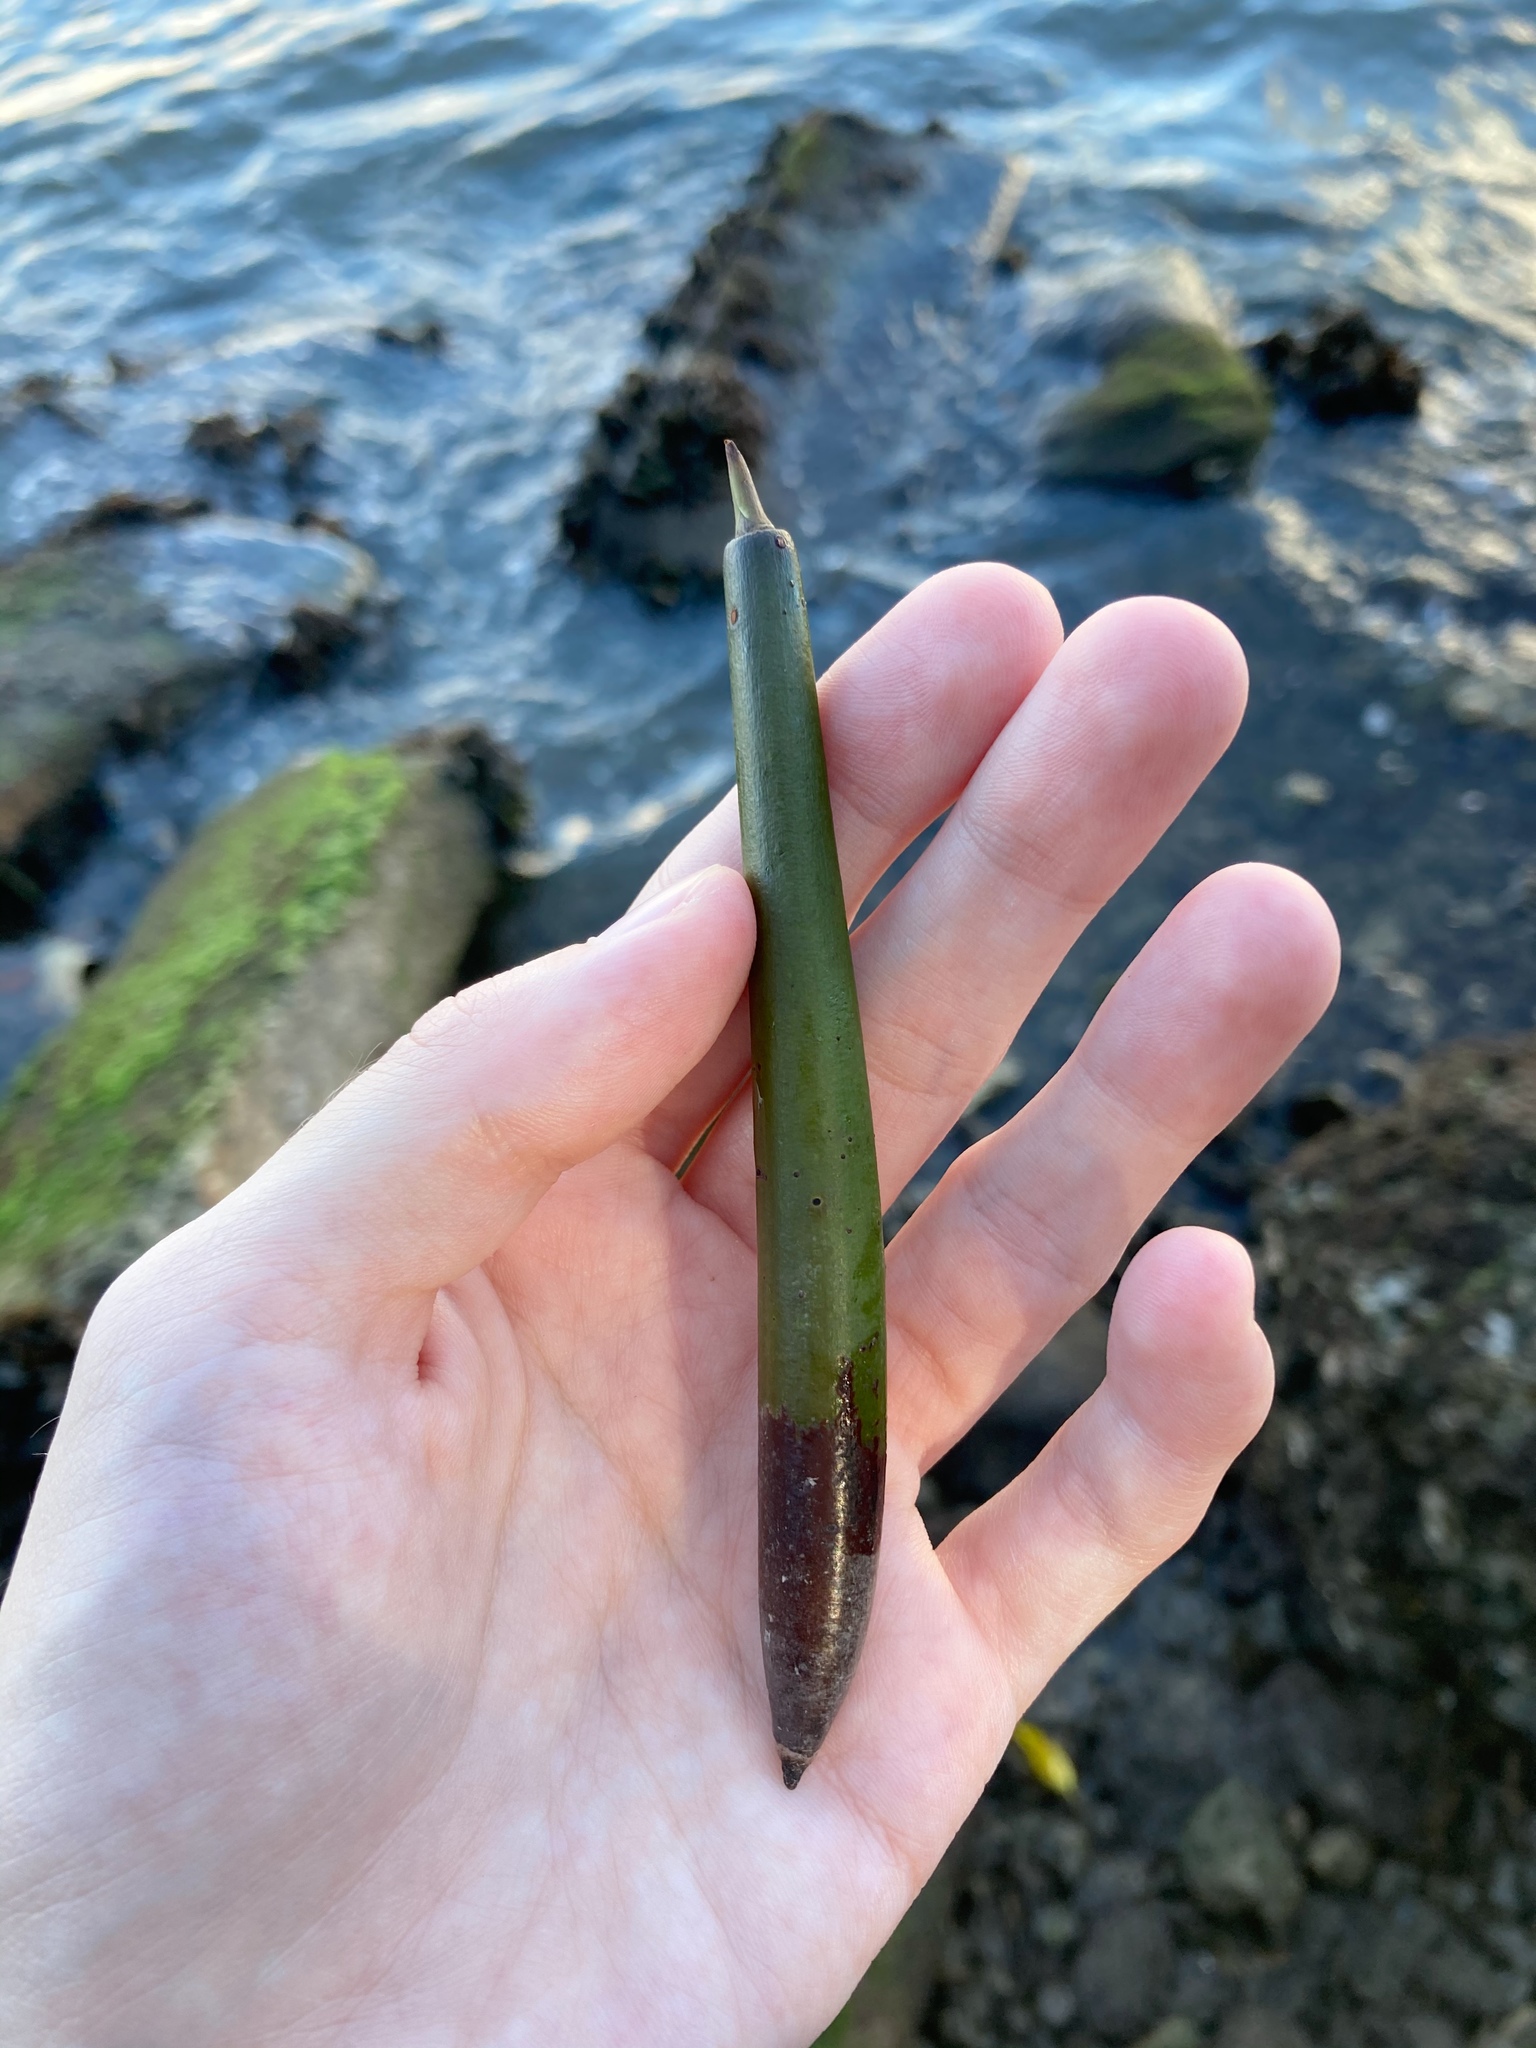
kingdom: Plantae
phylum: Tracheophyta
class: Magnoliopsida
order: Malpighiales
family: Rhizophoraceae
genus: Rhizophora
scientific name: Rhizophora mangle
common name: Red mangrove
